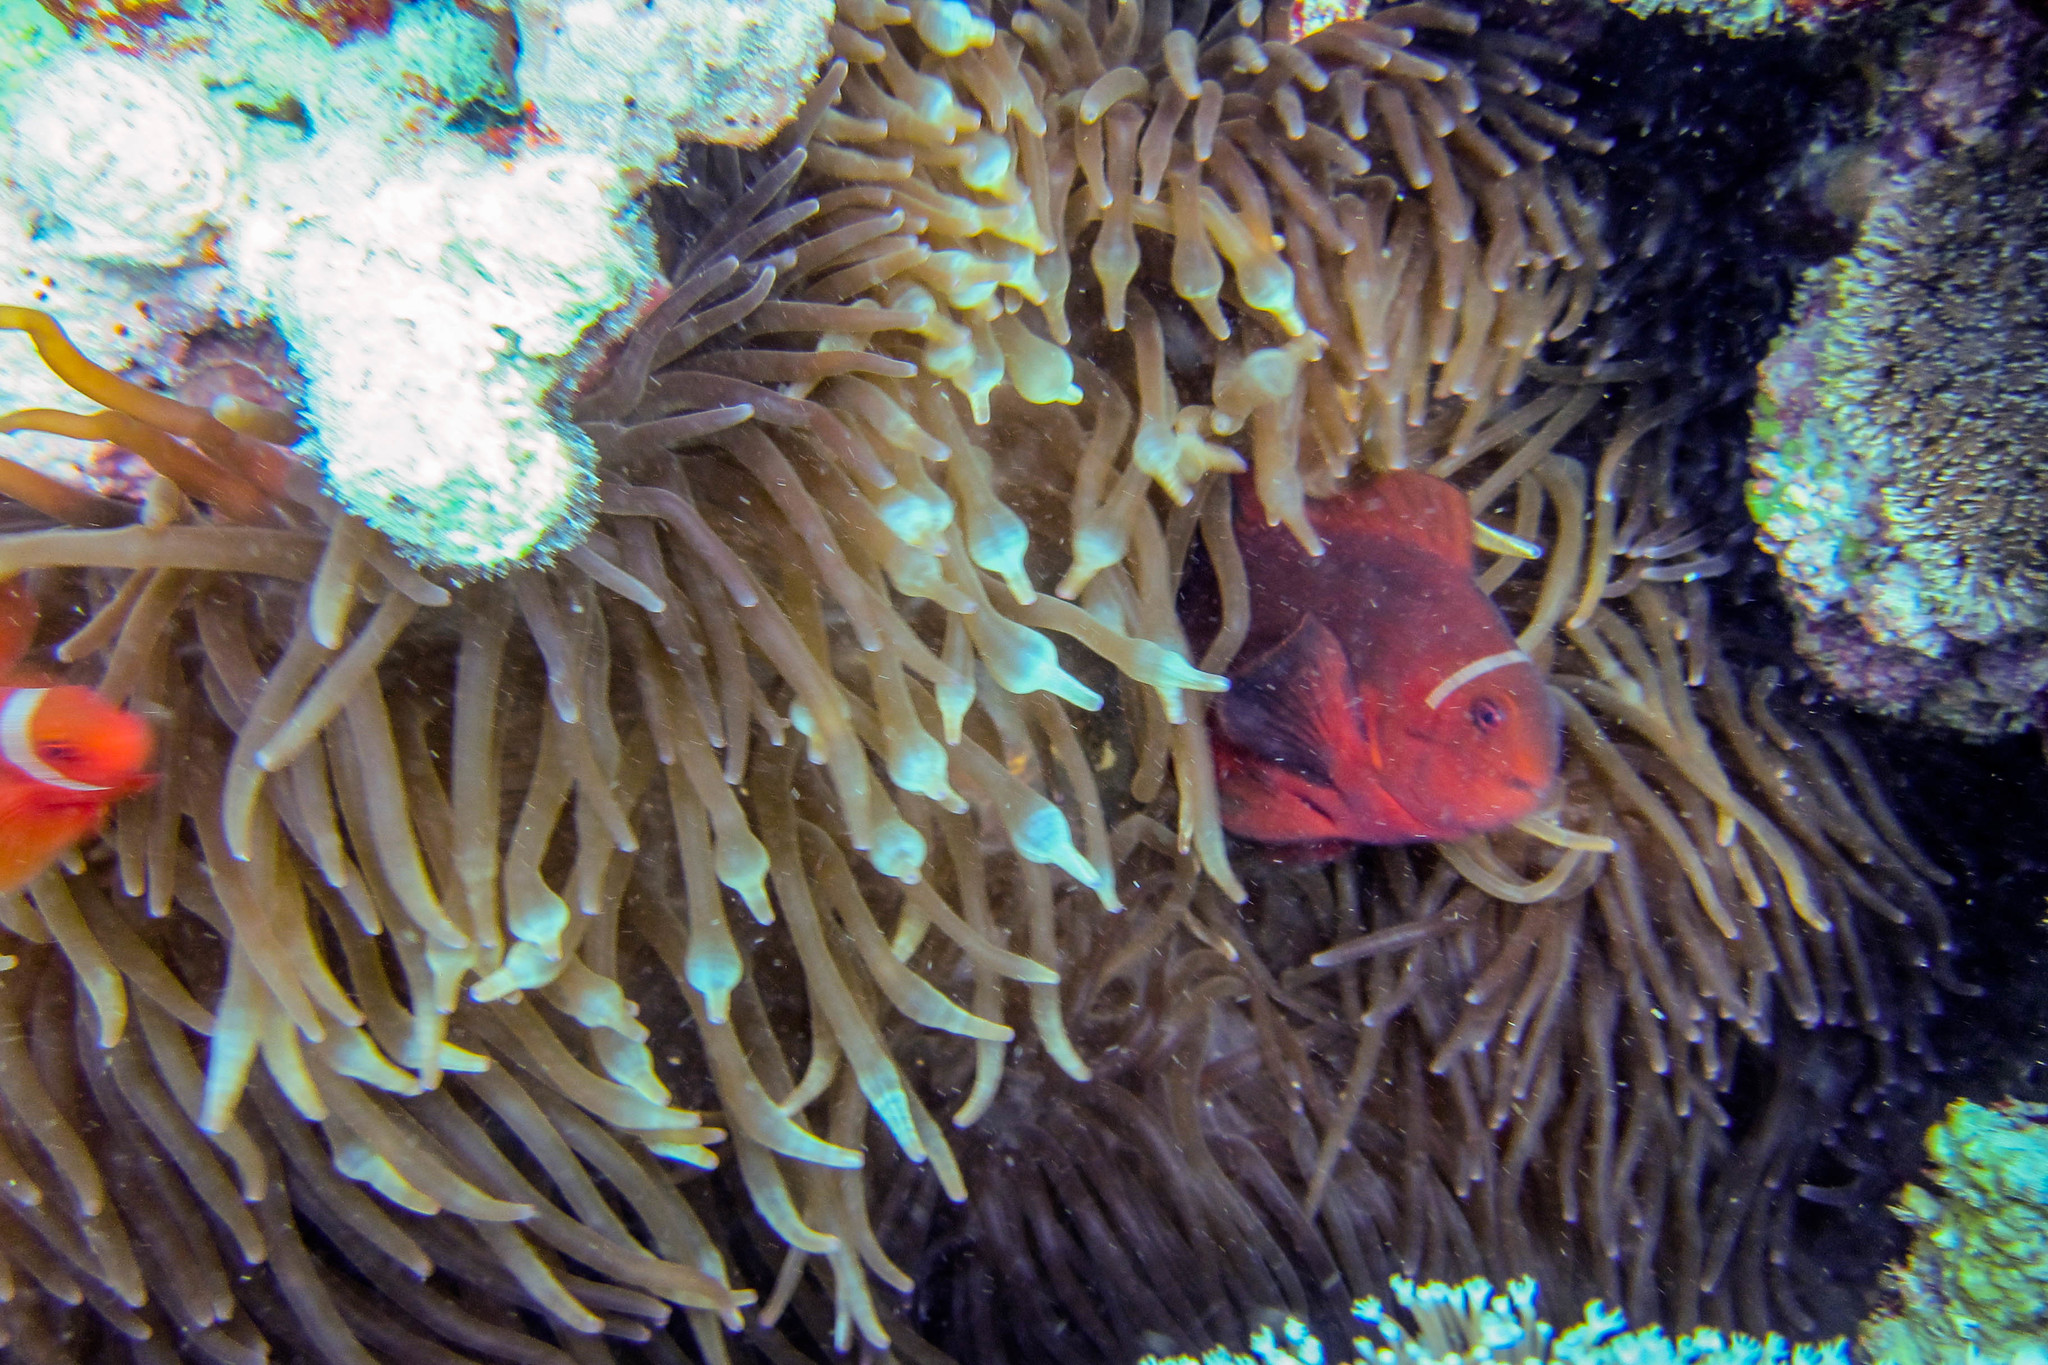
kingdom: Animalia
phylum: Cnidaria
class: Anthozoa
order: Actiniaria
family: Actiniidae
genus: Entacmaea
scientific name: Entacmaea quadricolor
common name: Bulb tentacle sea anemone
